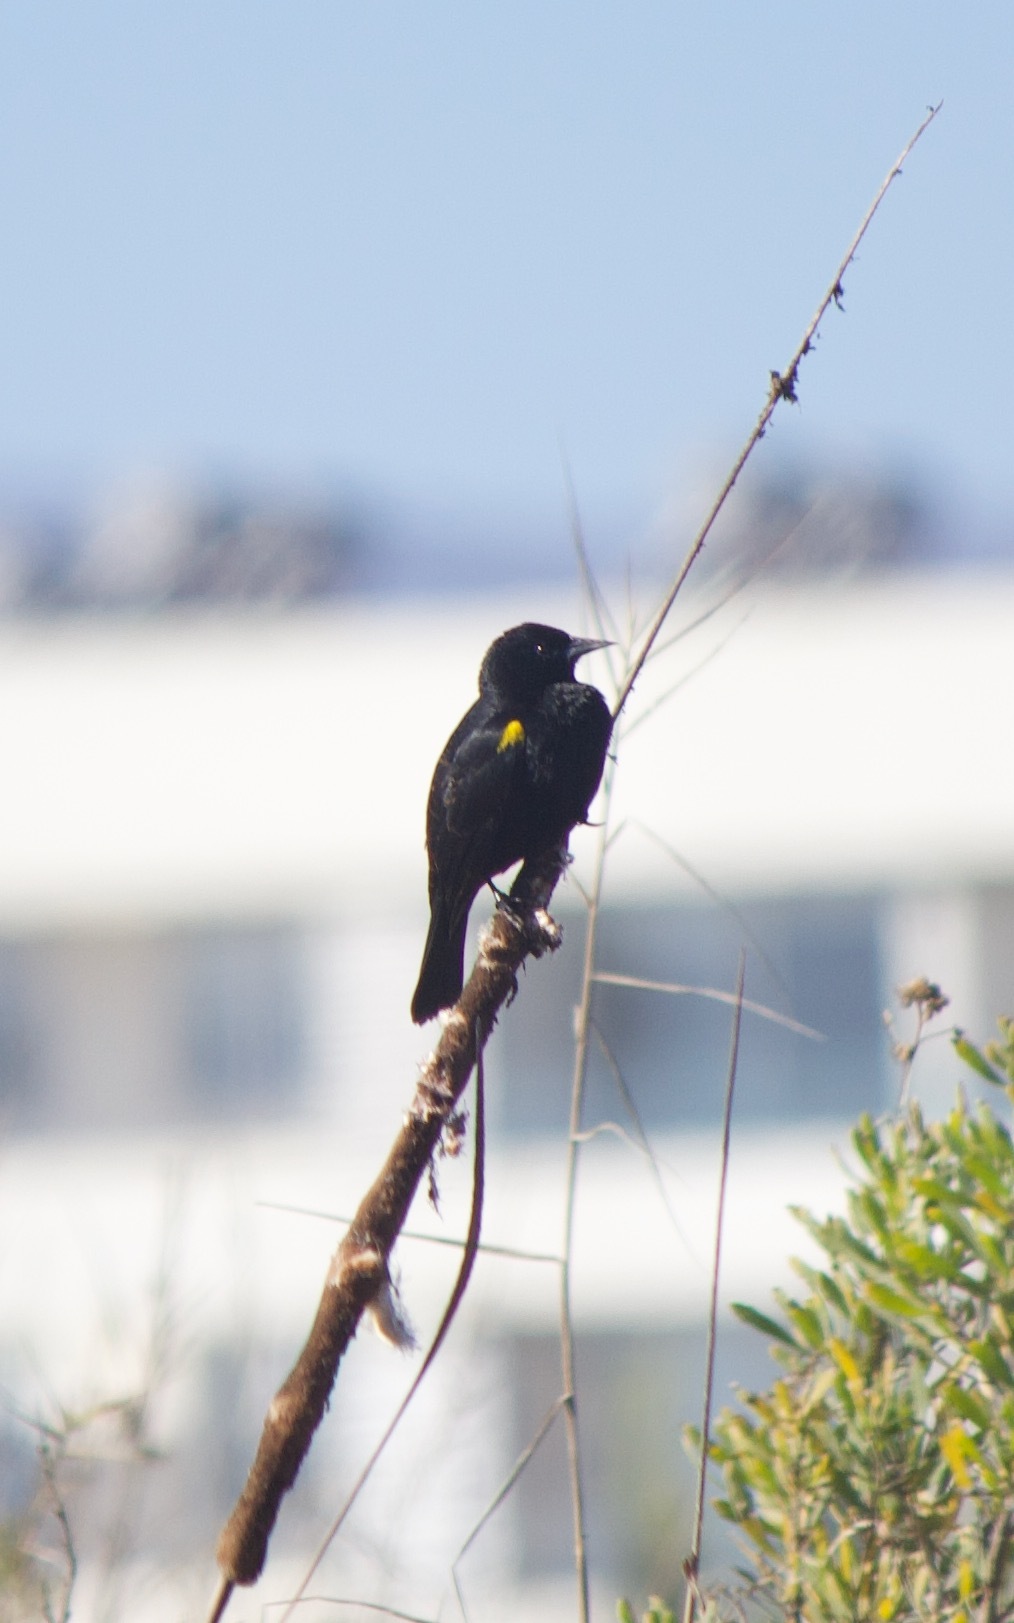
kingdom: Animalia
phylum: Chordata
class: Aves
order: Passeriformes
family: Icteridae
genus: Agelasticus
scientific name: Agelasticus thilius
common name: Yellow-winged blackbird
